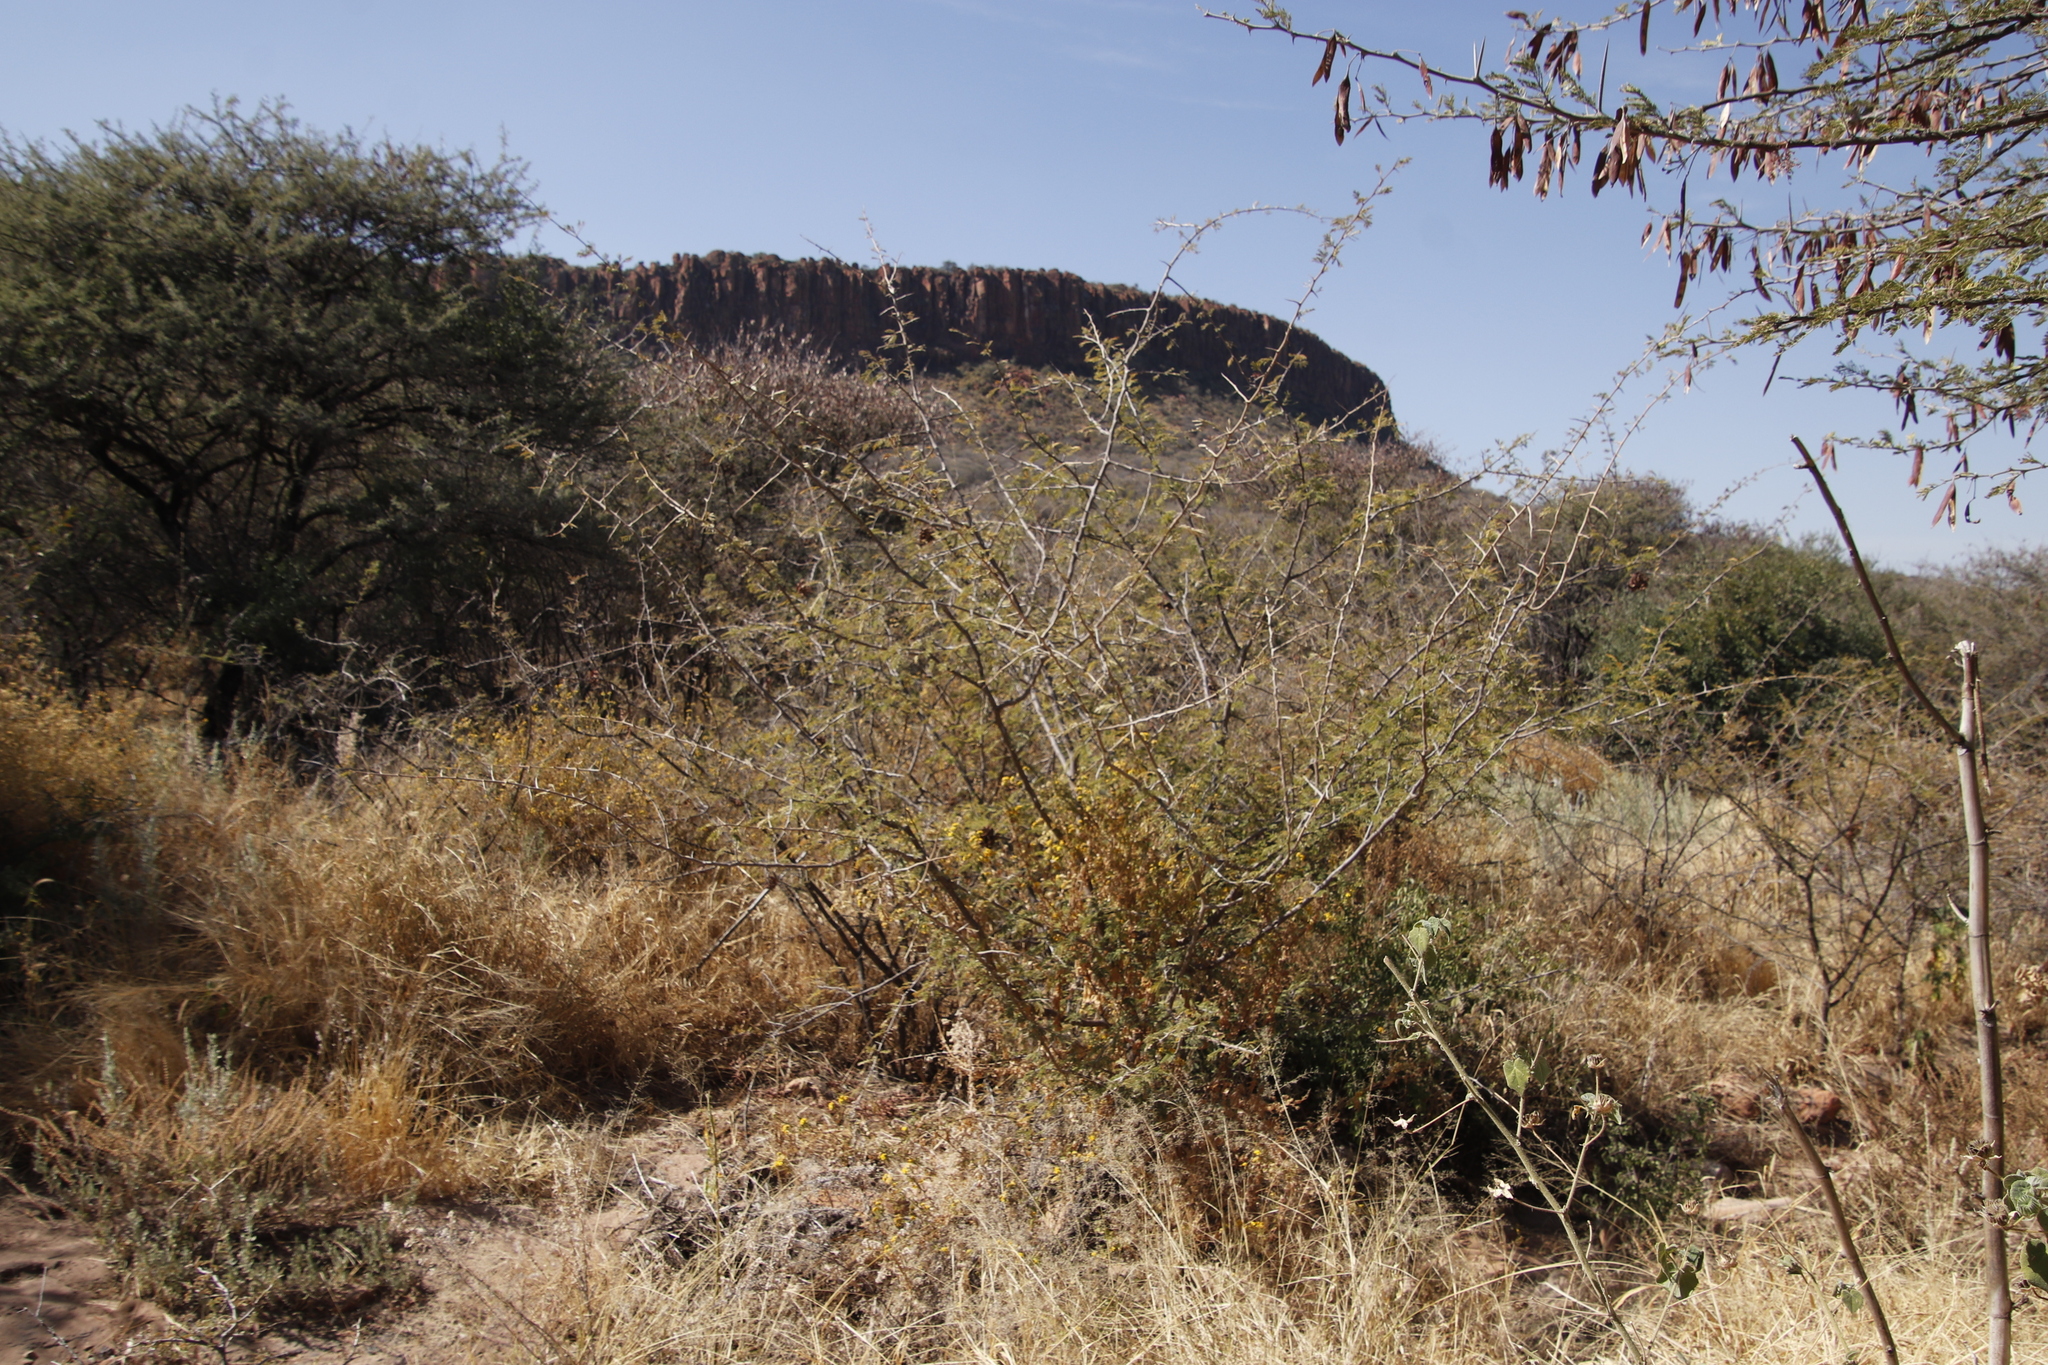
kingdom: Plantae
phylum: Tracheophyta
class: Magnoliopsida
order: Fabales
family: Fabaceae
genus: Dichrostachys
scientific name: Dichrostachys cinerea
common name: Sicklebush
